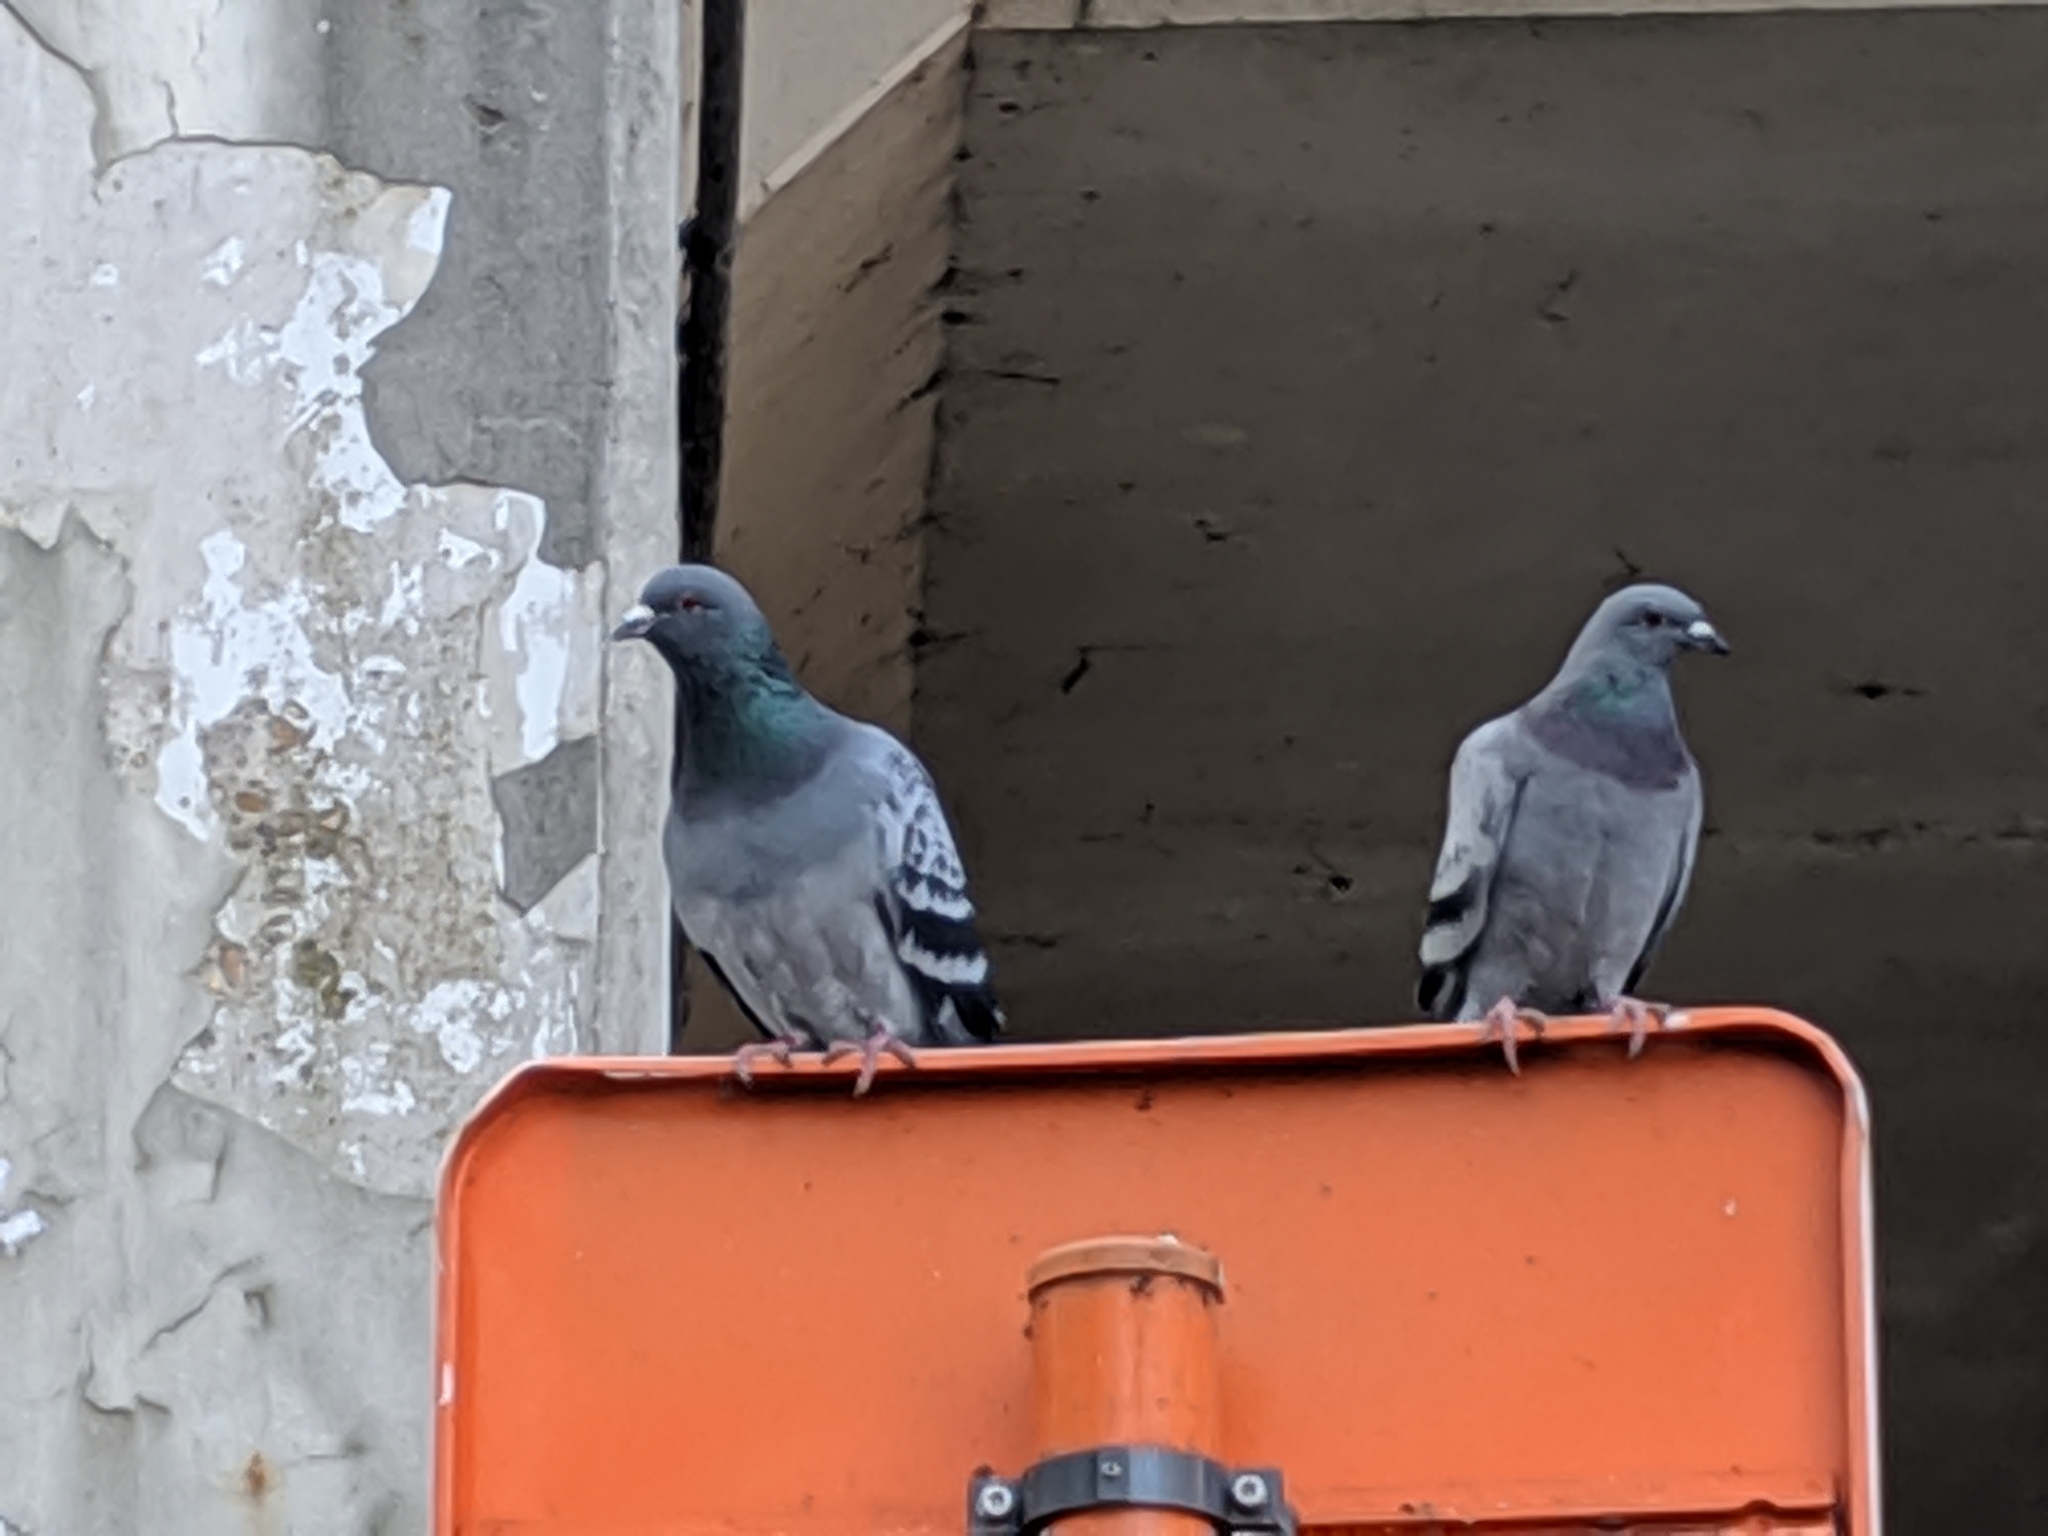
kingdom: Animalia
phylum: Chordata
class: Aves
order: Columbiformes
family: Columbidae
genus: Columba
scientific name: Columba livia
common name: Rock pigeon
